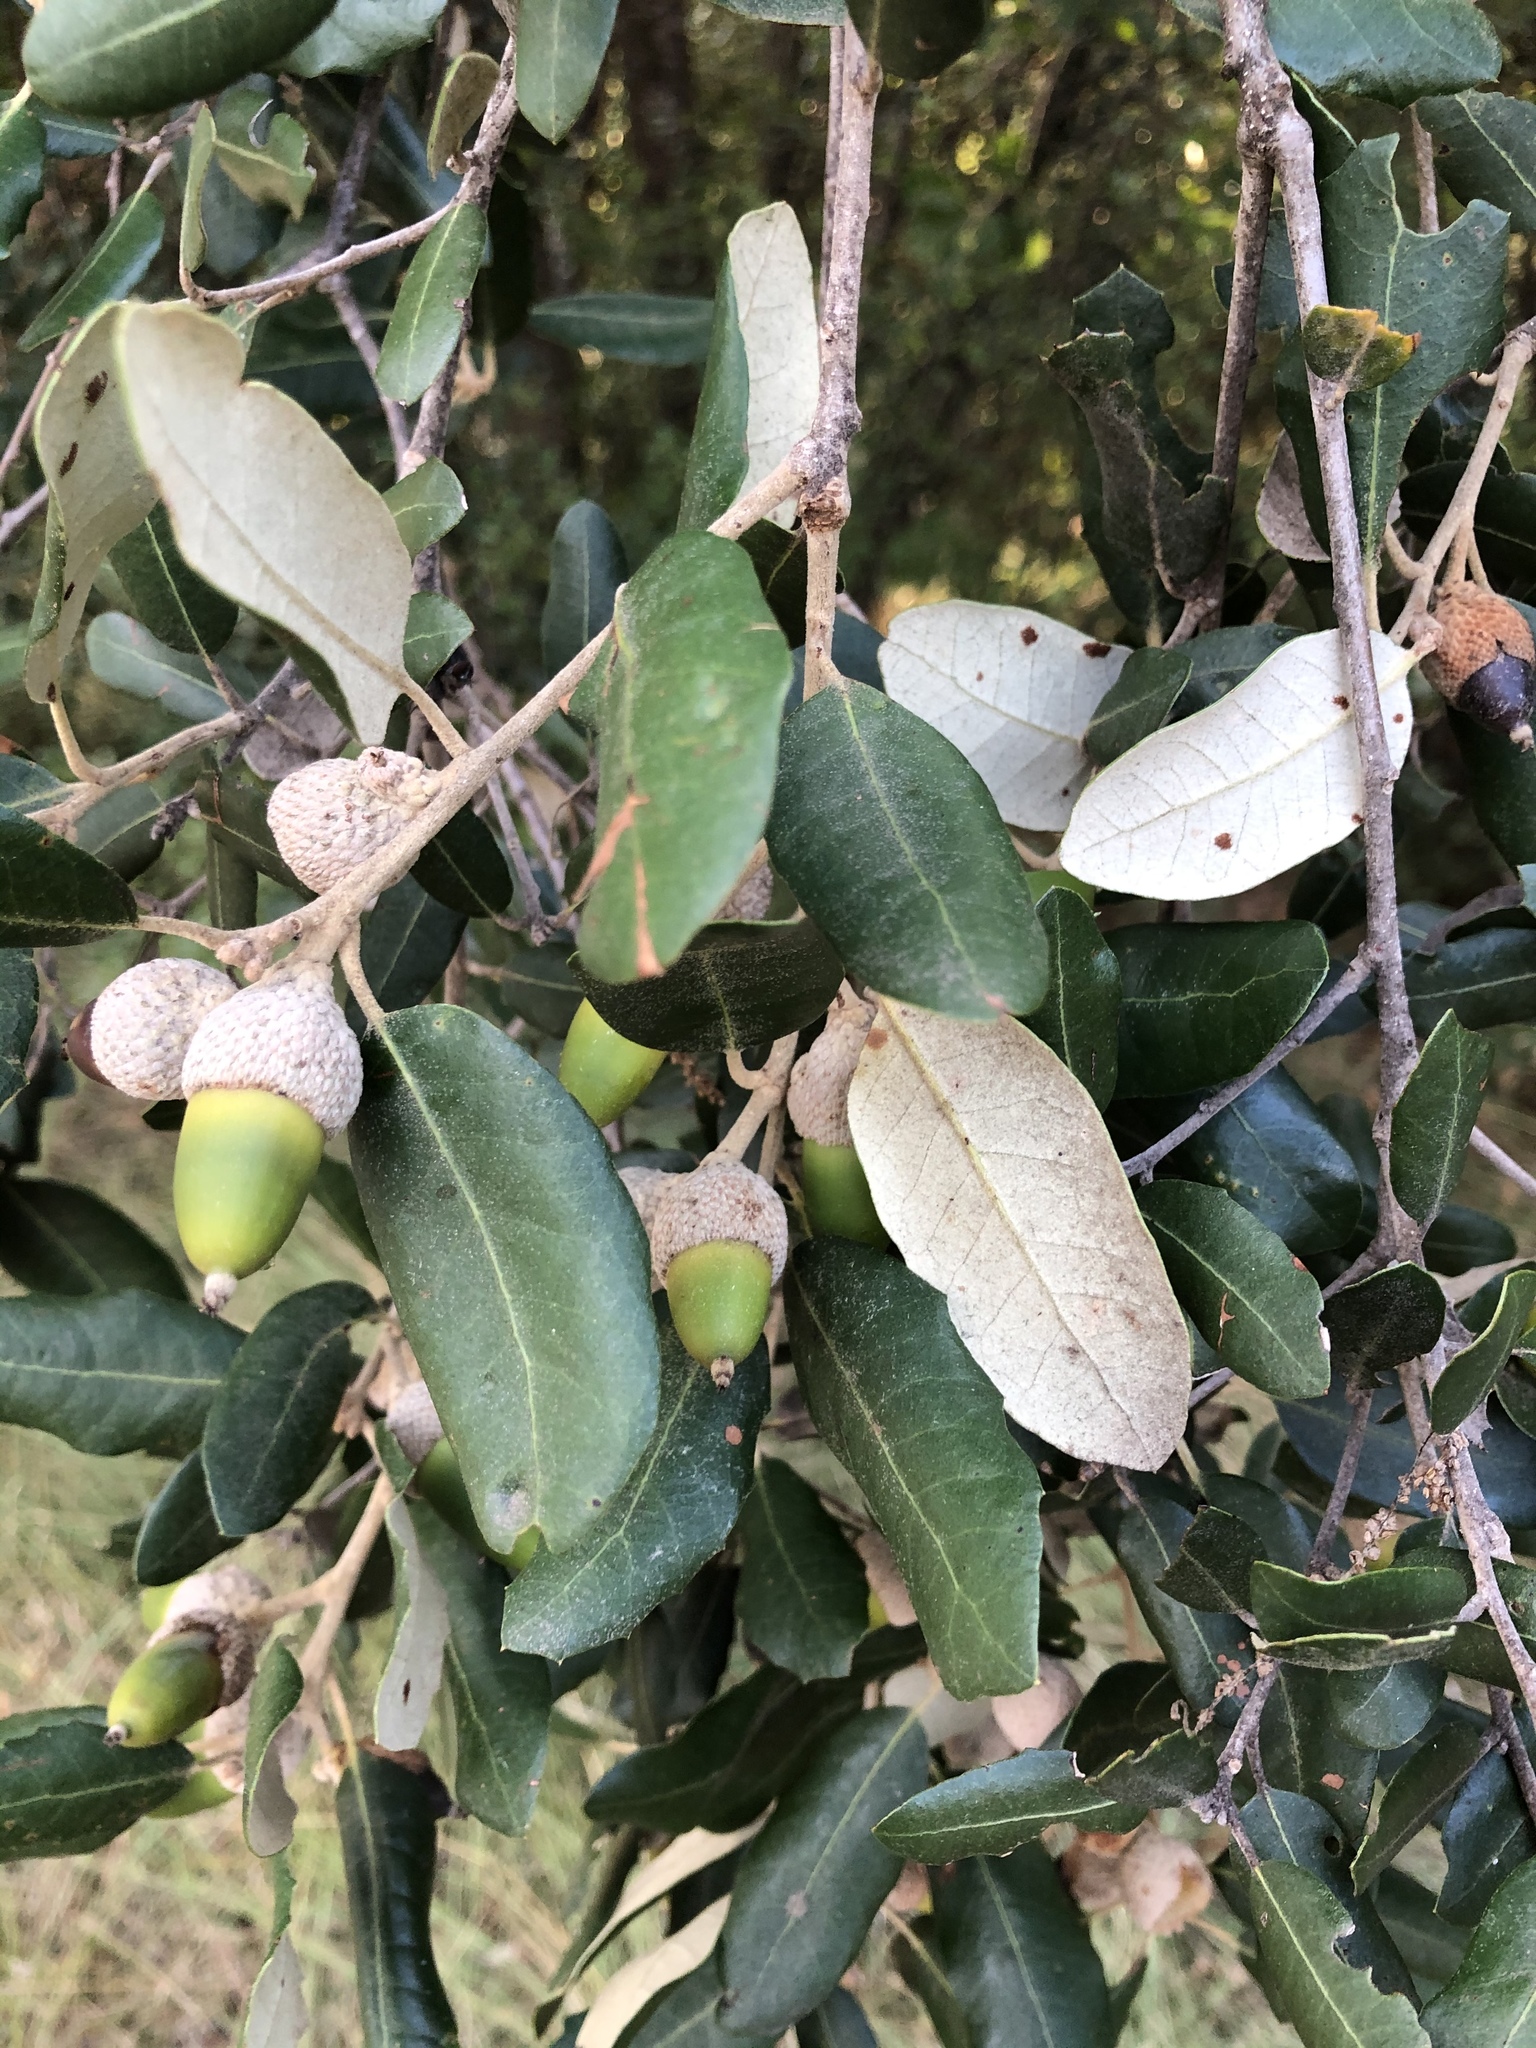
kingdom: Plantae
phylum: Tracheophyta
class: Magnoliopsida
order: Fagales
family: Fagaceae
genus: Quercus
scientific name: Quercus ilex
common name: Evergreen oak
